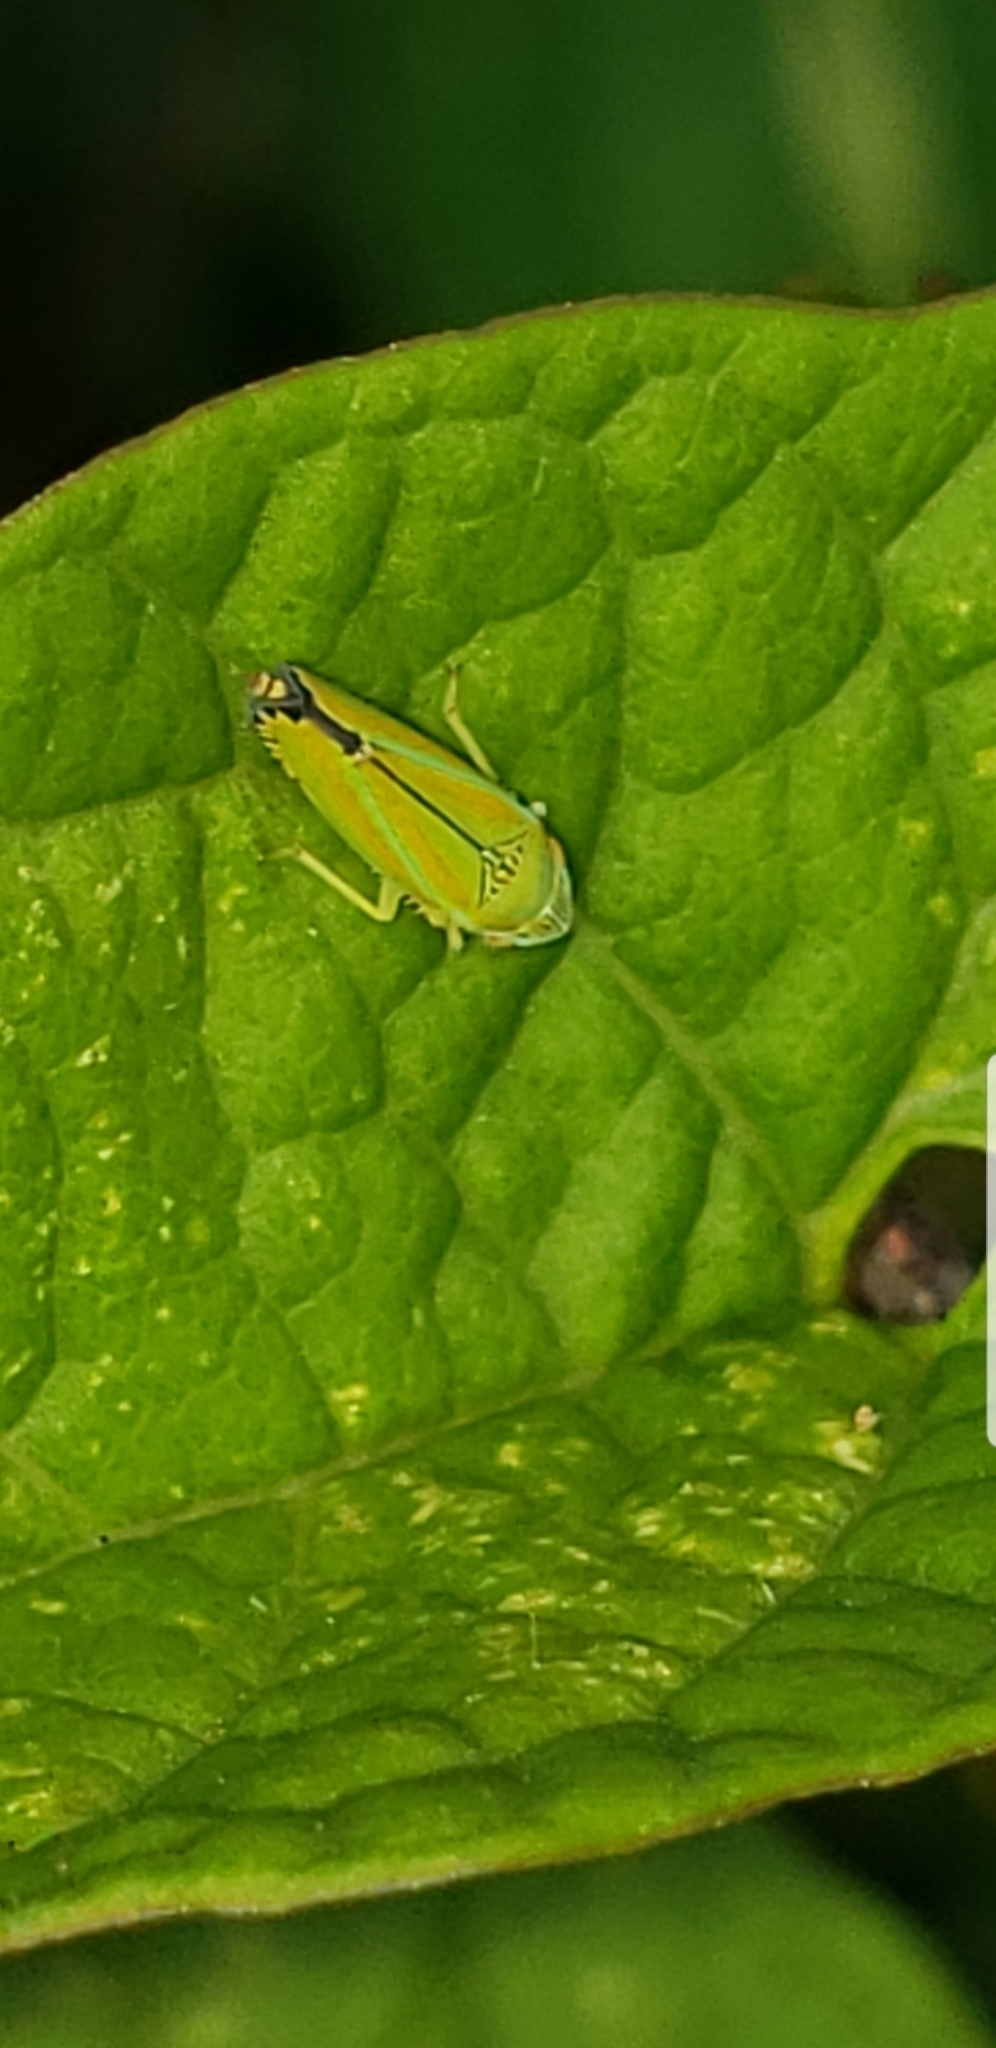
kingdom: Animalia
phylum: Arthropoda
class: Insecta
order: Hemiptera
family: Cicadellidae
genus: Graphocephala
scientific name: Graphocephala versuta
